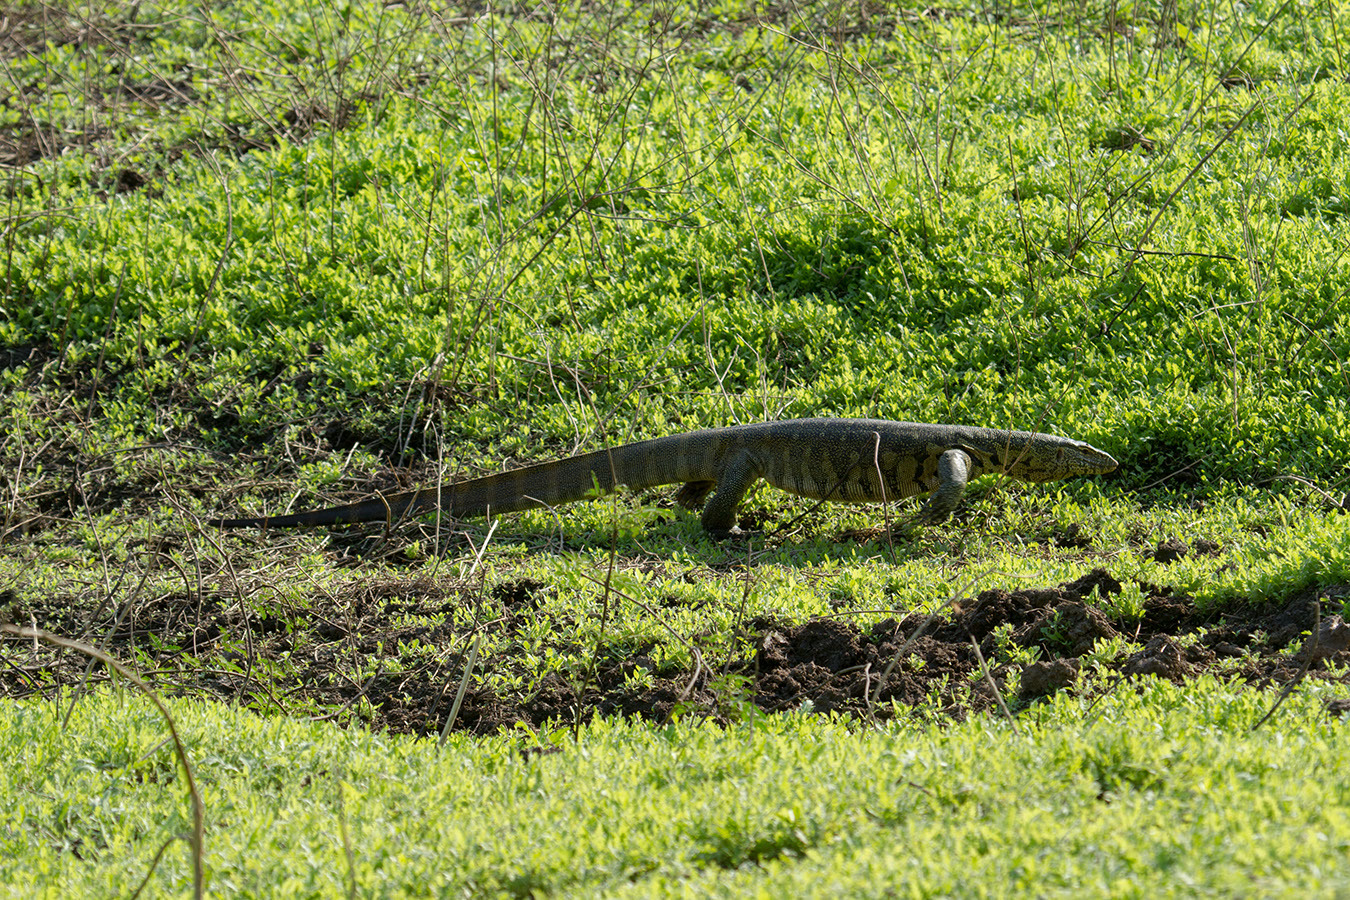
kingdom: Animalia
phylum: Chordata
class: Squamata
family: Varanidae
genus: Varanus
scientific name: Varanus niloticus
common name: Nile monitor
